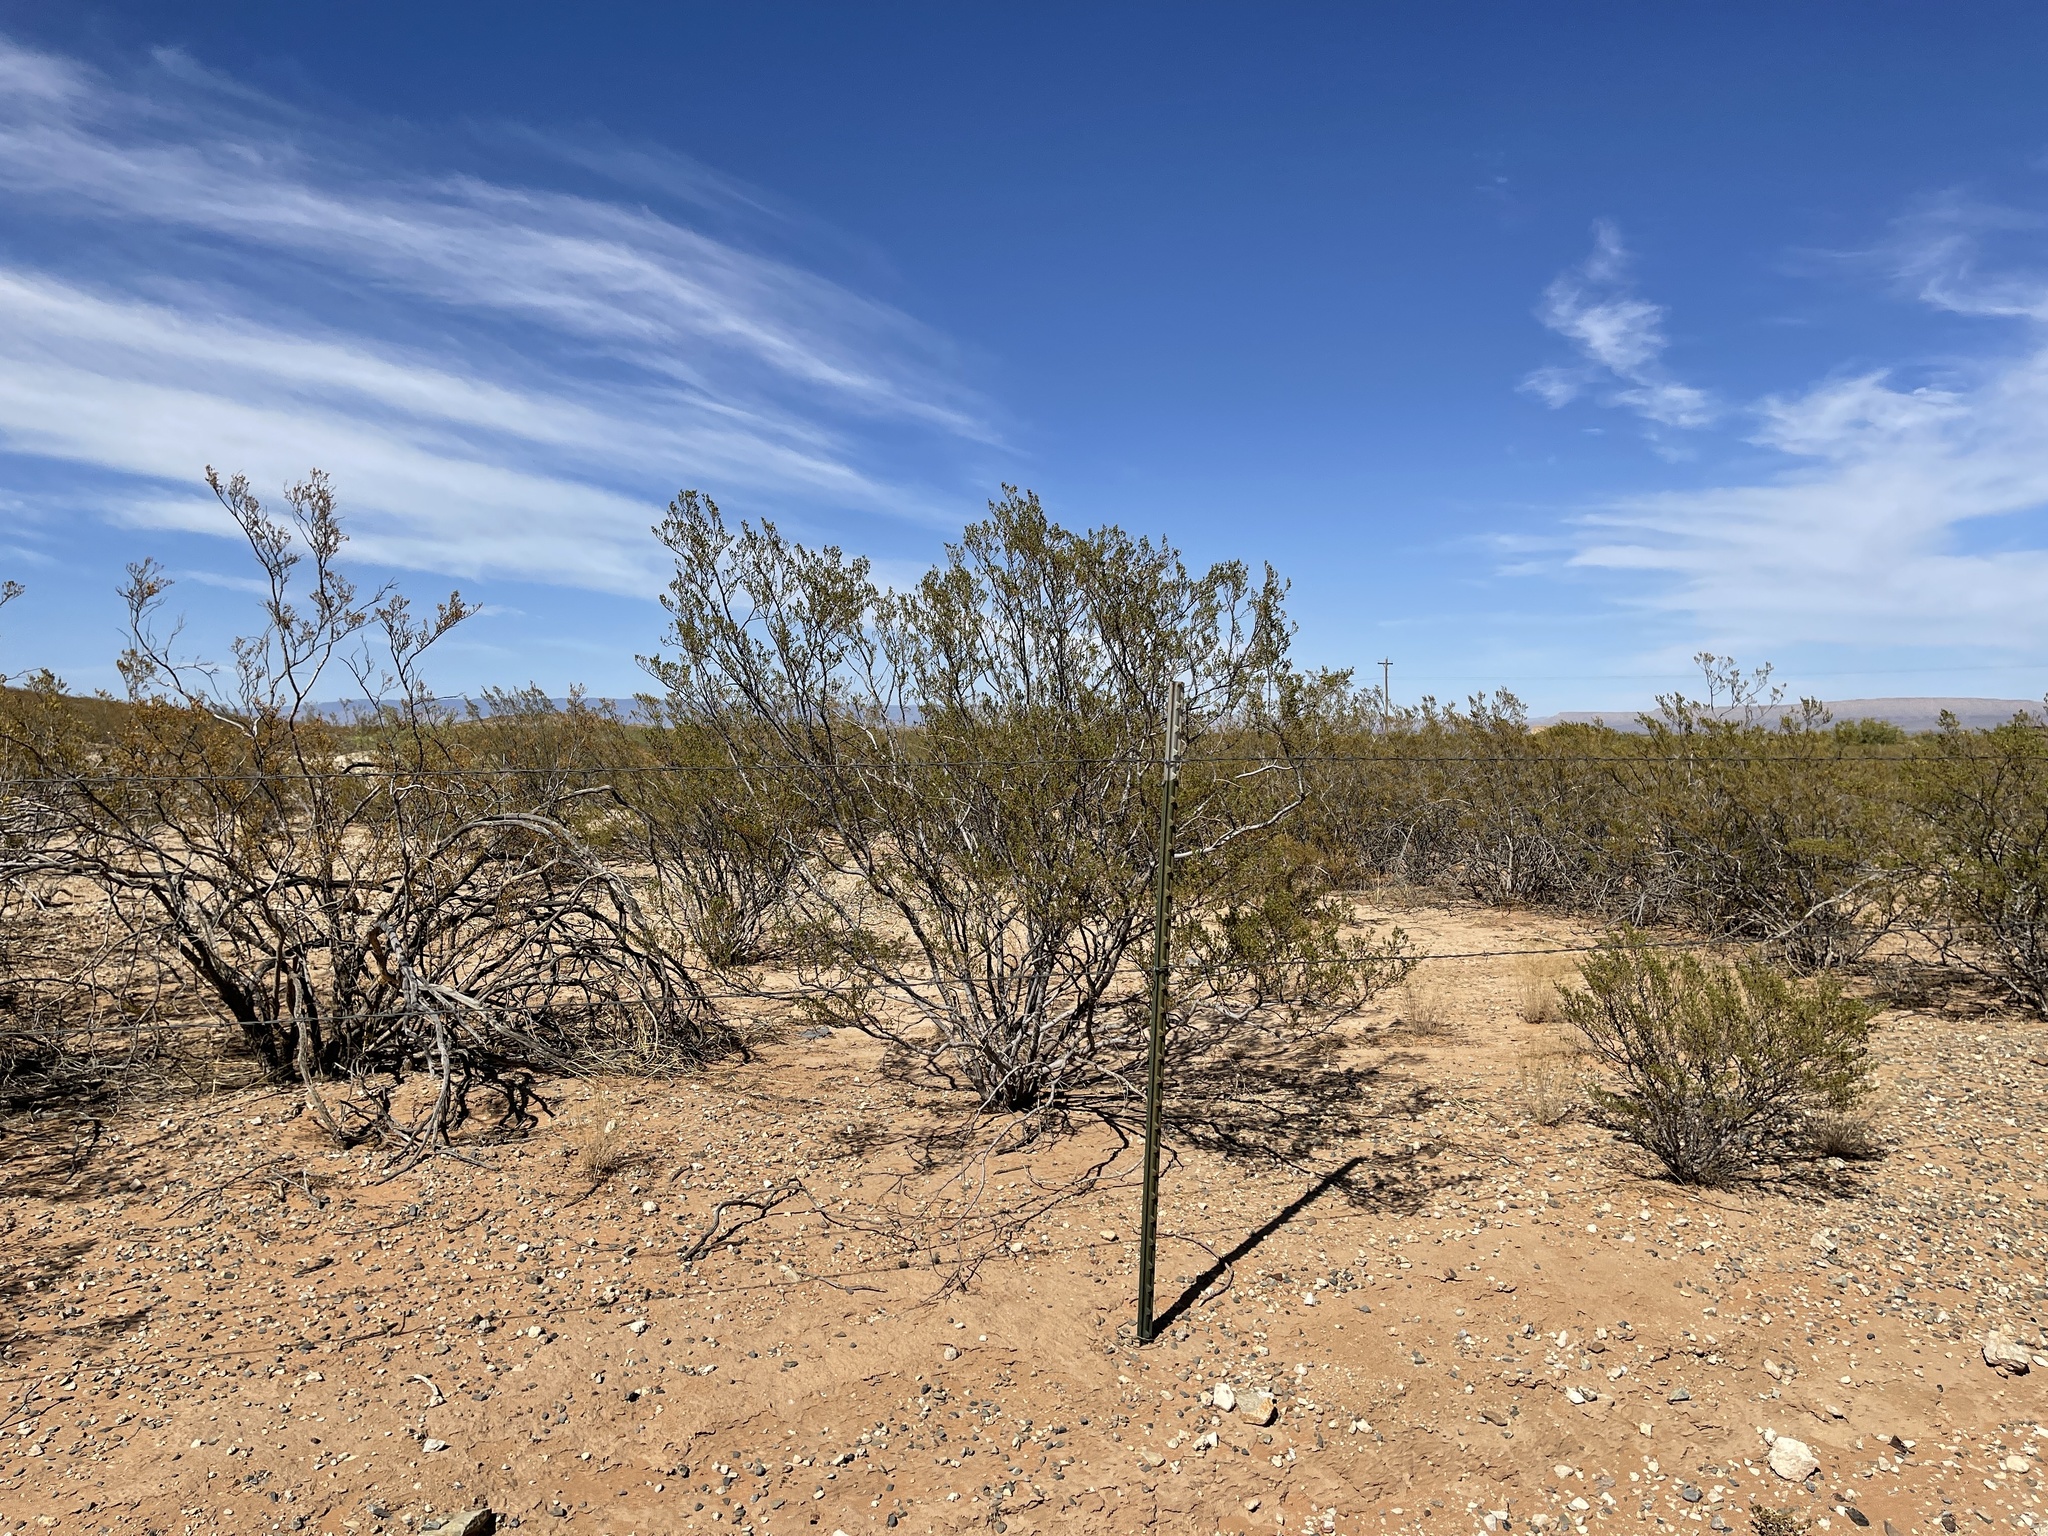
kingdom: Plantae
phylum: Tracheophyta
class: Magnoliopsida
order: Zygophyllales
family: Zygophyllaceae
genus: Larrea
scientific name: Larrea tridentata
